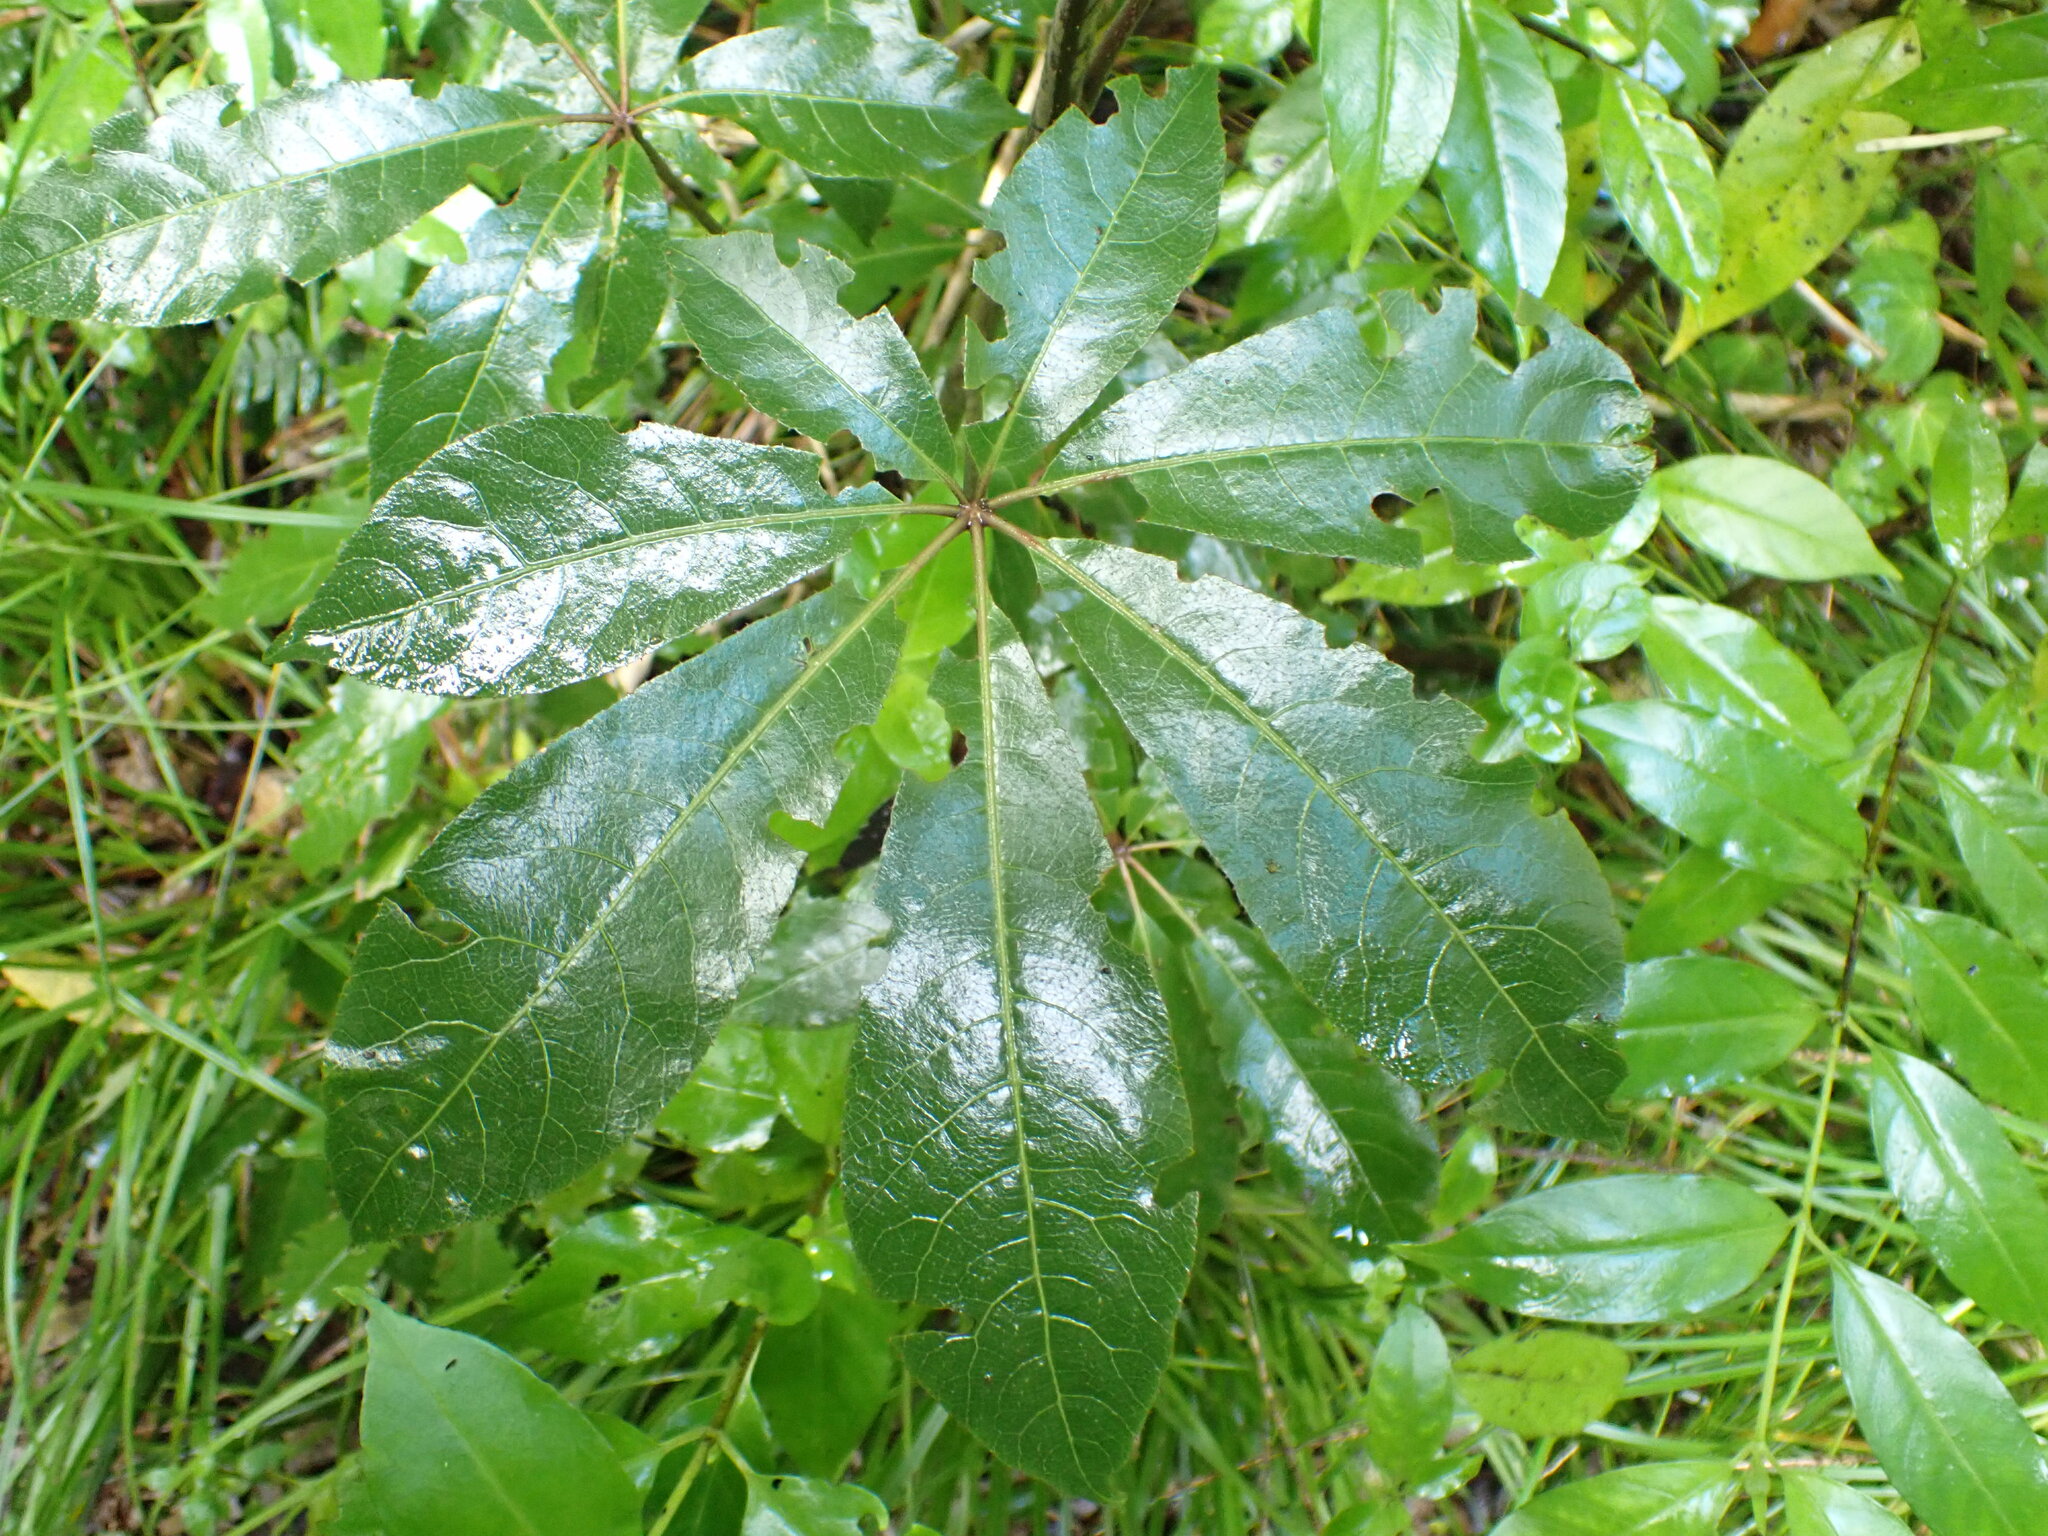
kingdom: Plantae
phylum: Tracheophyta
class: Magnoliopsida
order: Apiales
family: Araliaceae
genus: Schefflera
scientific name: Schefflera digitata
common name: Pate
